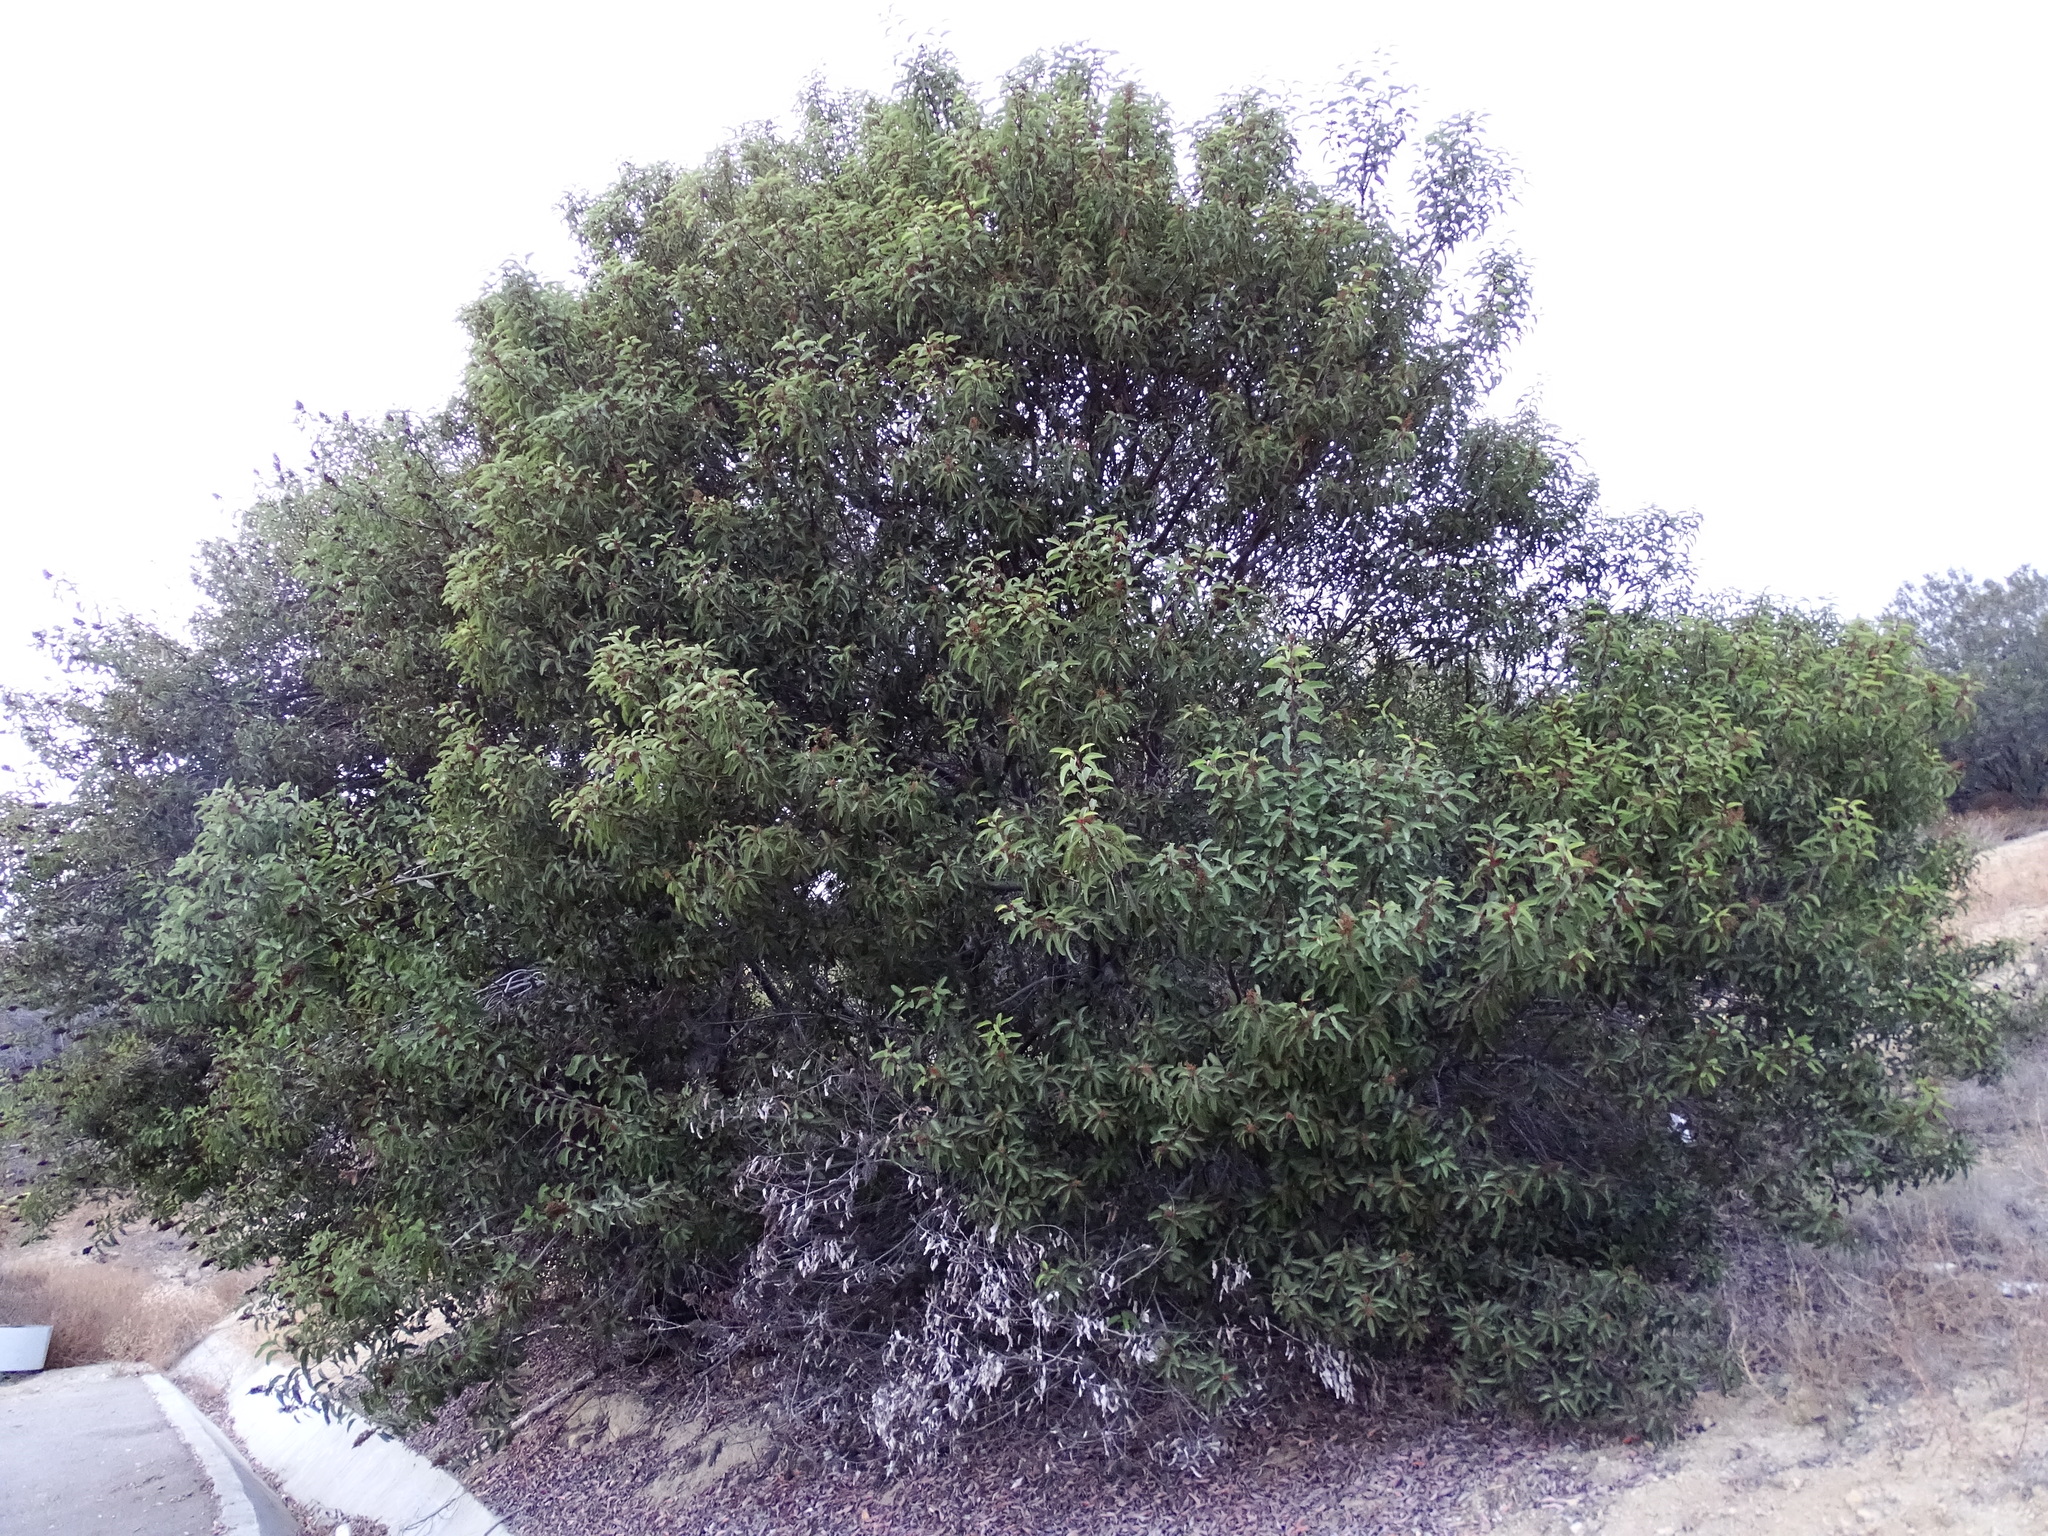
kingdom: Plantae
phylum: Tracheophyta
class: Magnoliopsida
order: Sapindales
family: Anacardiaceae
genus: Malosma
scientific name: Malosma laurina
